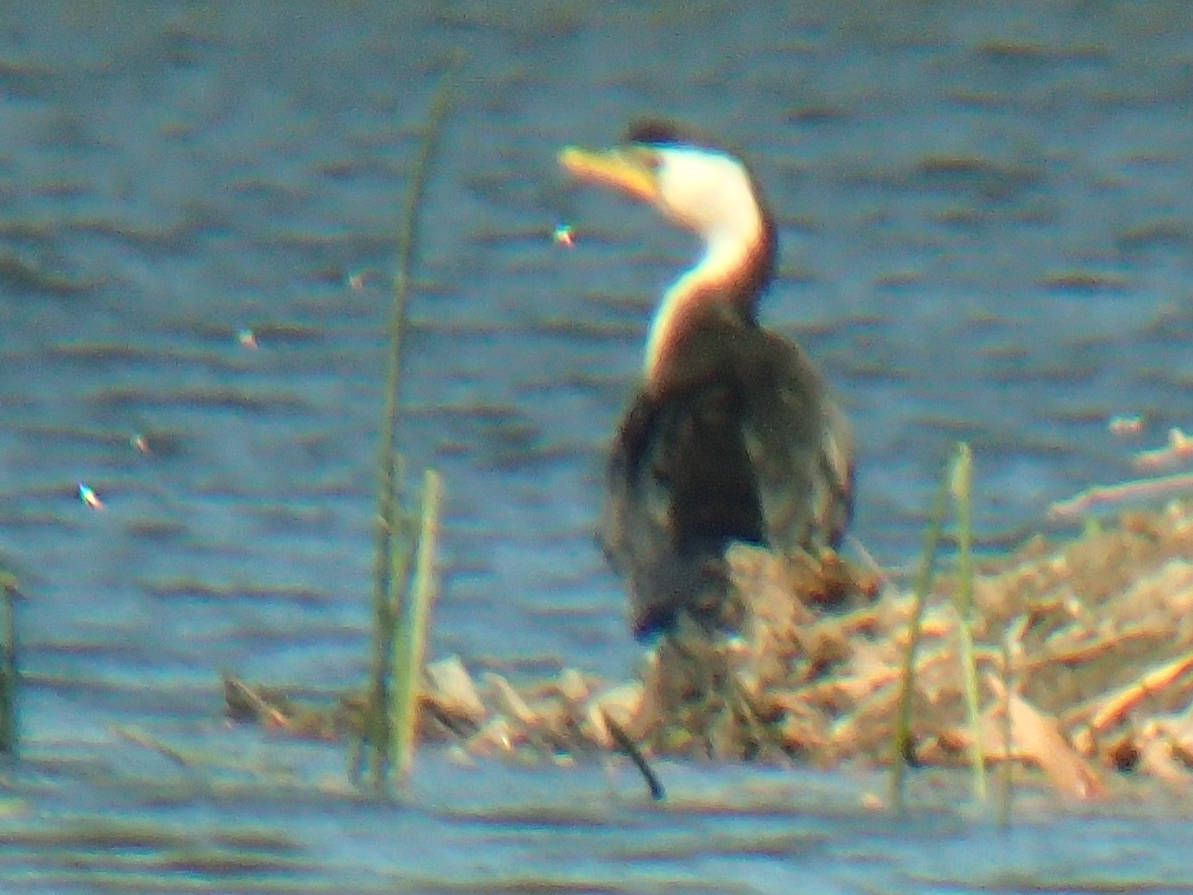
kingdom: Animalia
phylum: Chordata
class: Aves
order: Suliformes
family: Phalacrocoracidae
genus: Microcarbo
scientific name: Microcarbo melanoleucos
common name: Little pied cormorant
